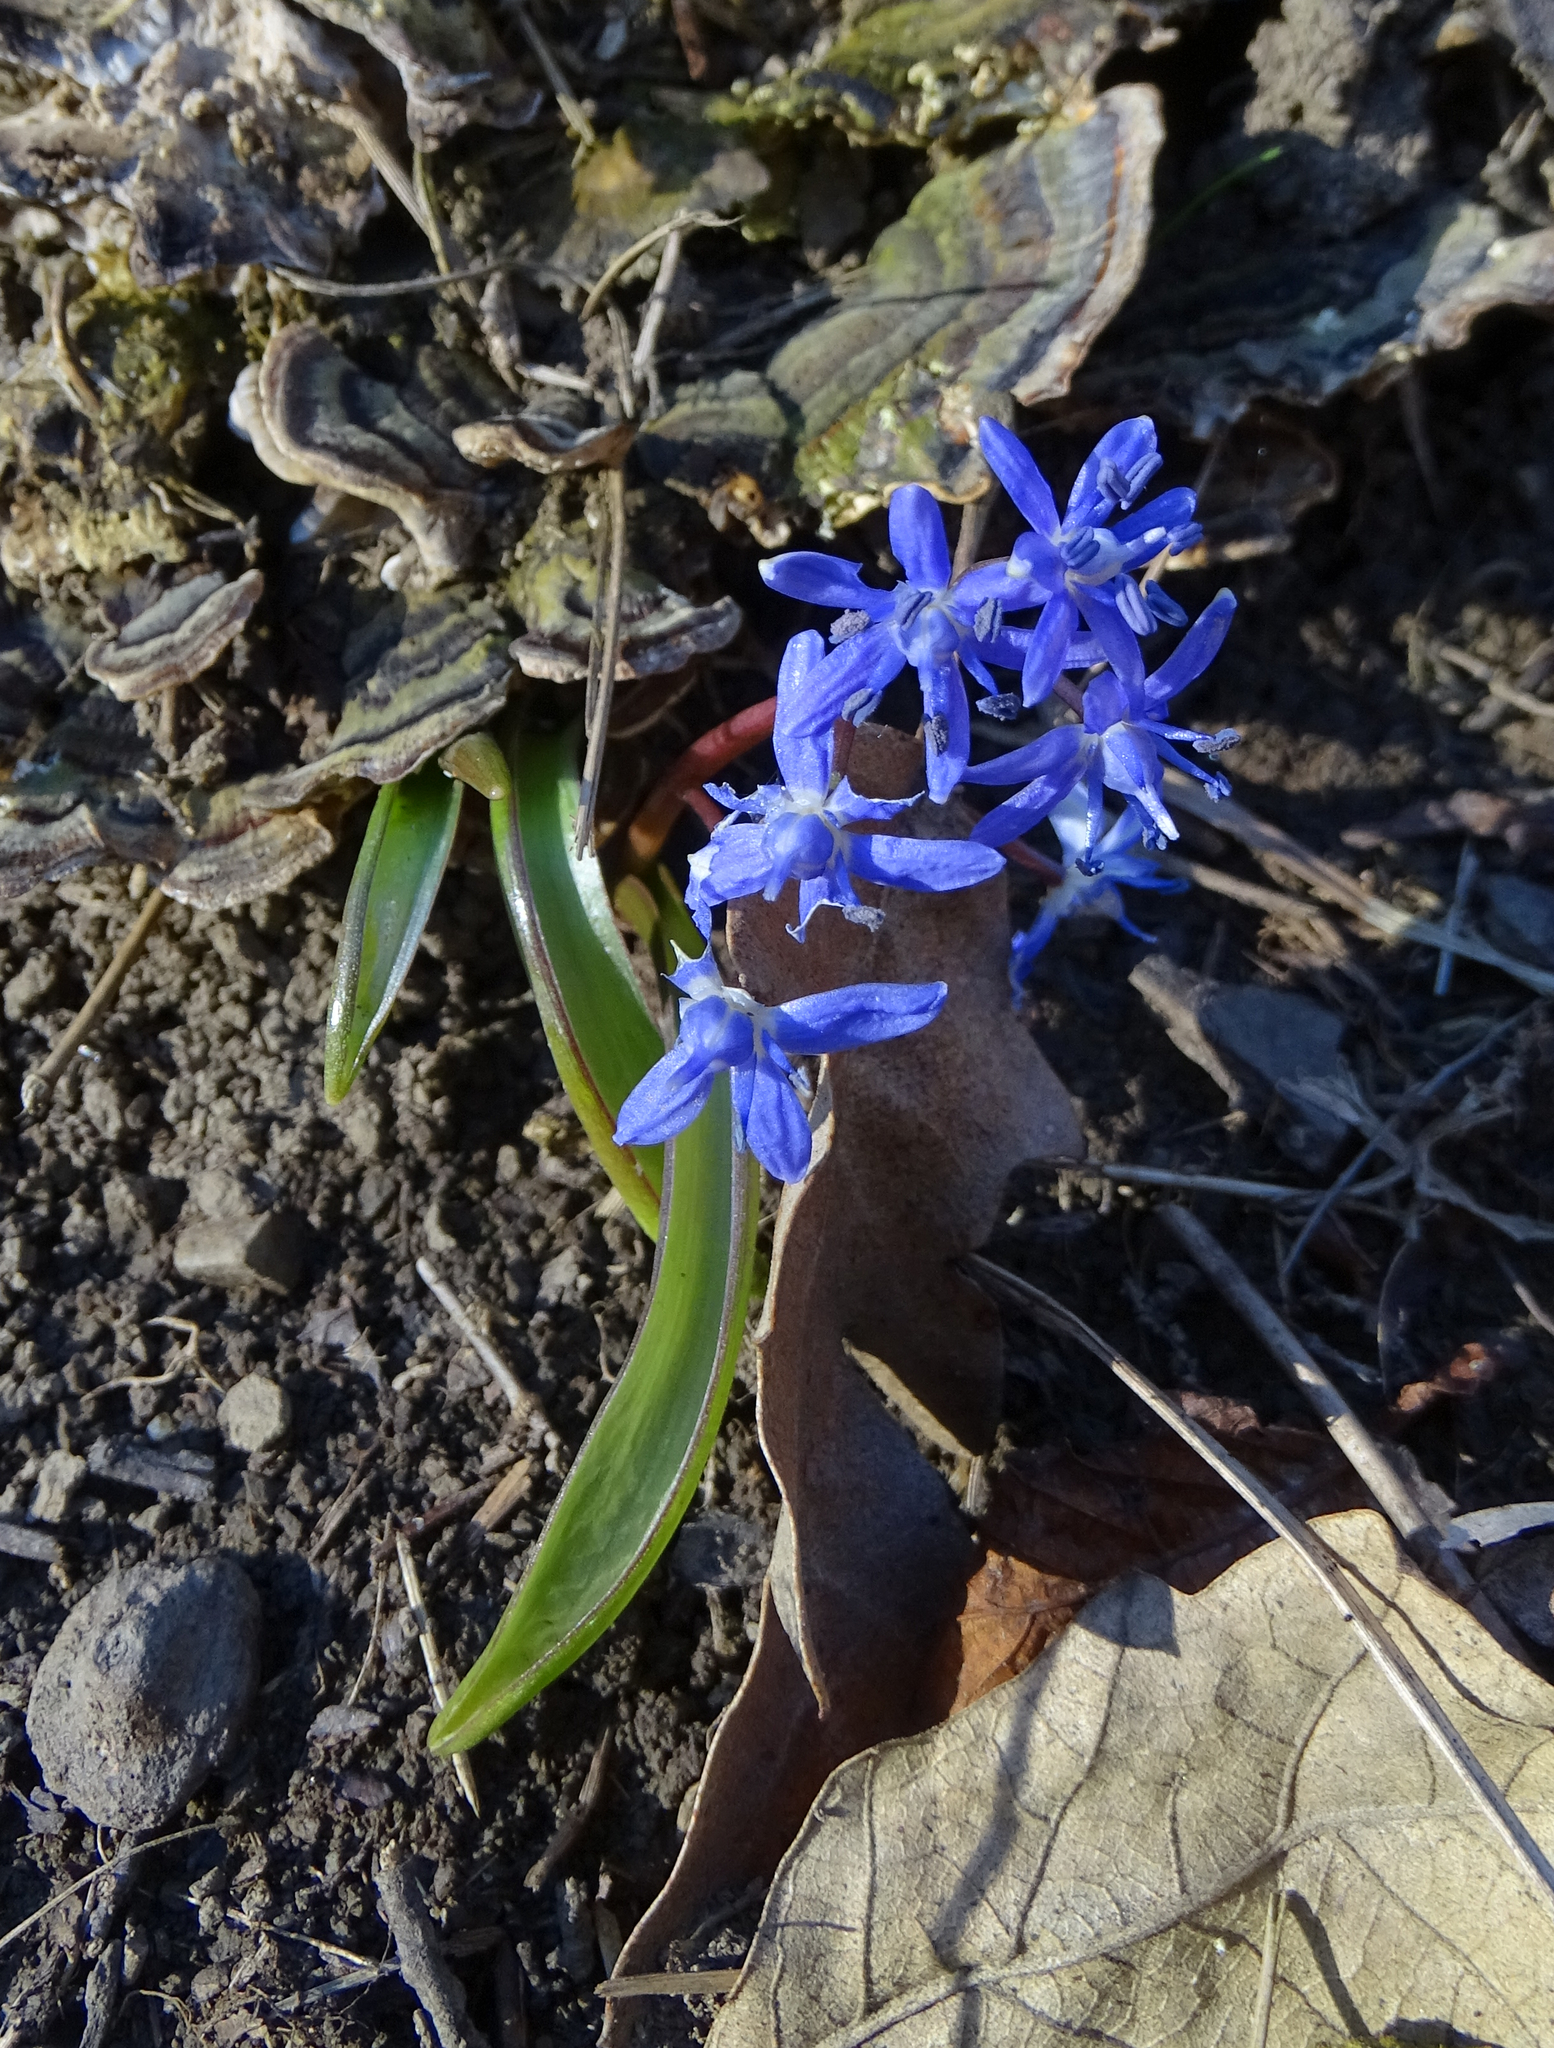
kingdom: Plantae
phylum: Tracheophyta
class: Liliopsida
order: Asparagales
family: Asparagaceae
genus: Scilla
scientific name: Scilla vindobonensis
